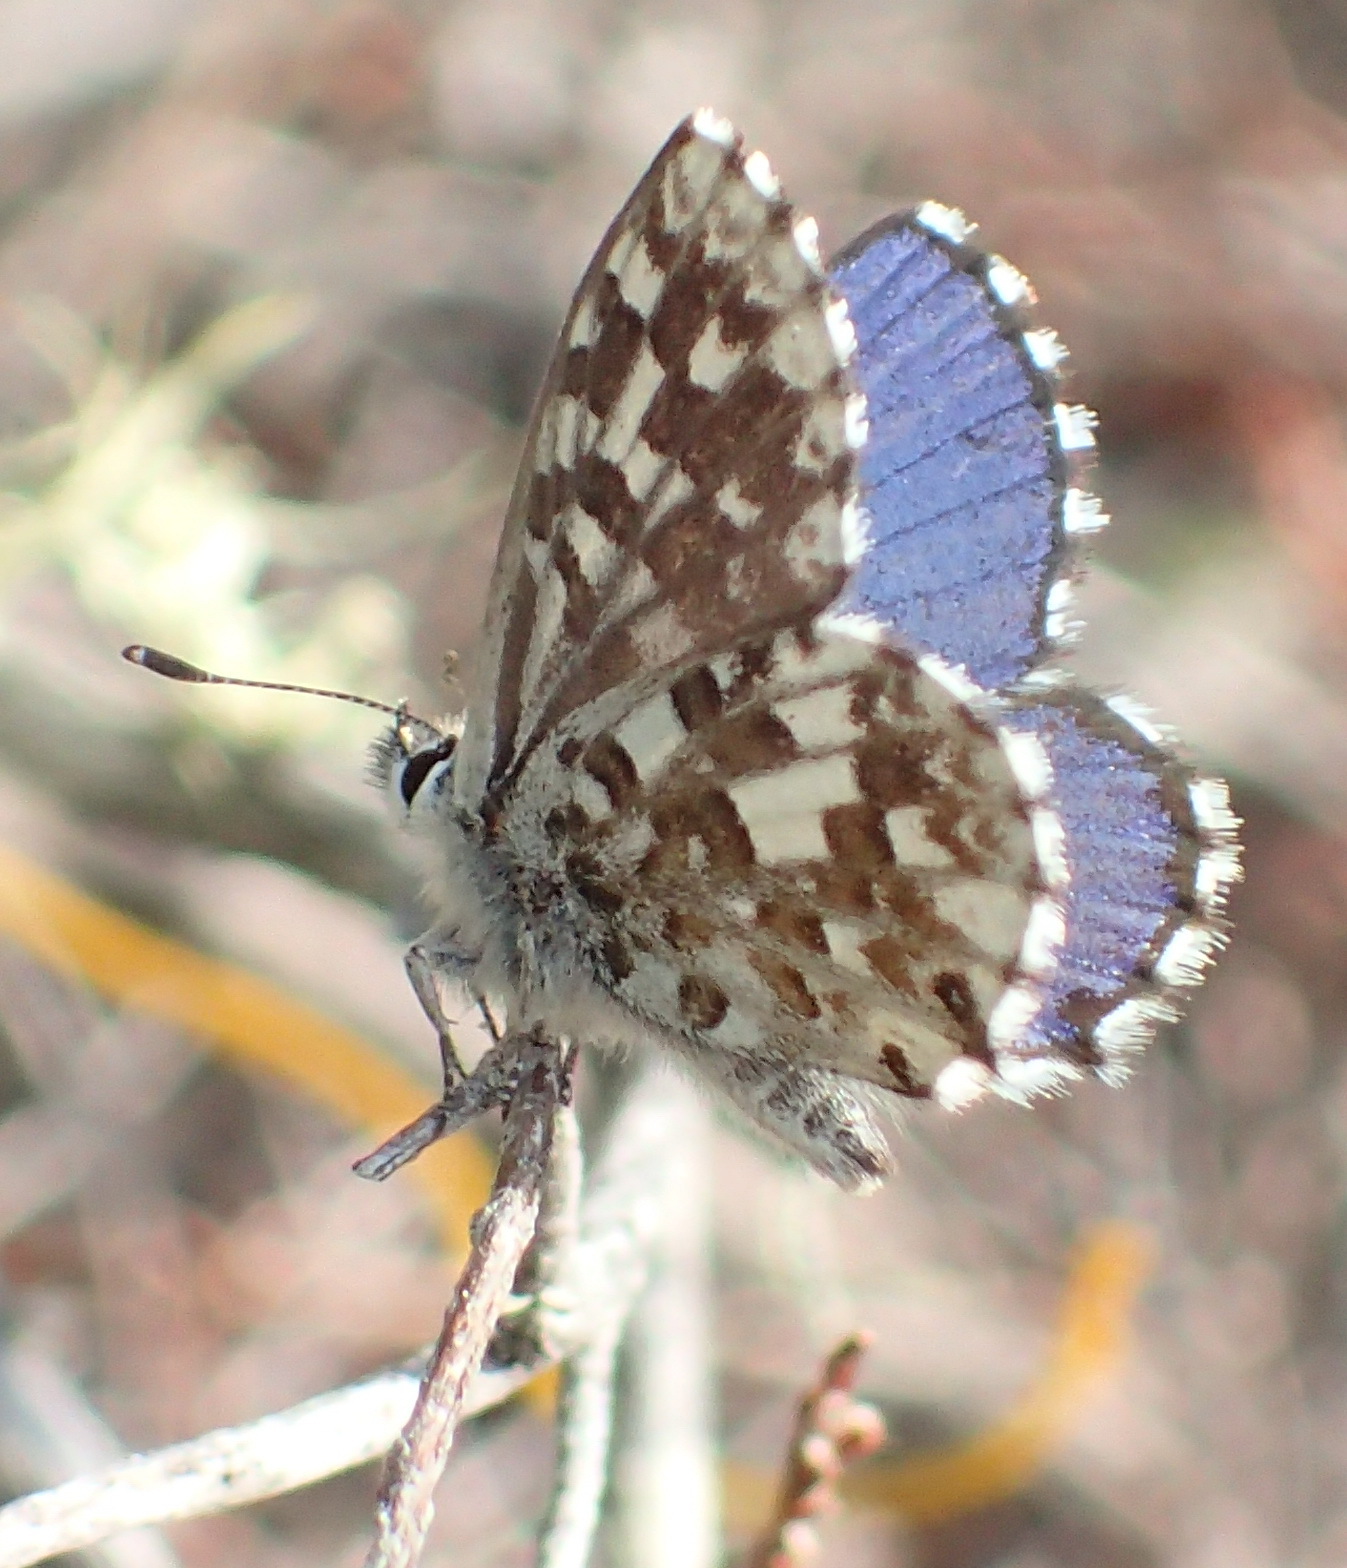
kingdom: Animalia
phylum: Arthropoda
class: Insecta
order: Lepidoptera
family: Lycaenidae
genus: Tarucus
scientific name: Tarucus thespis
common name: Vivid dotted blue
